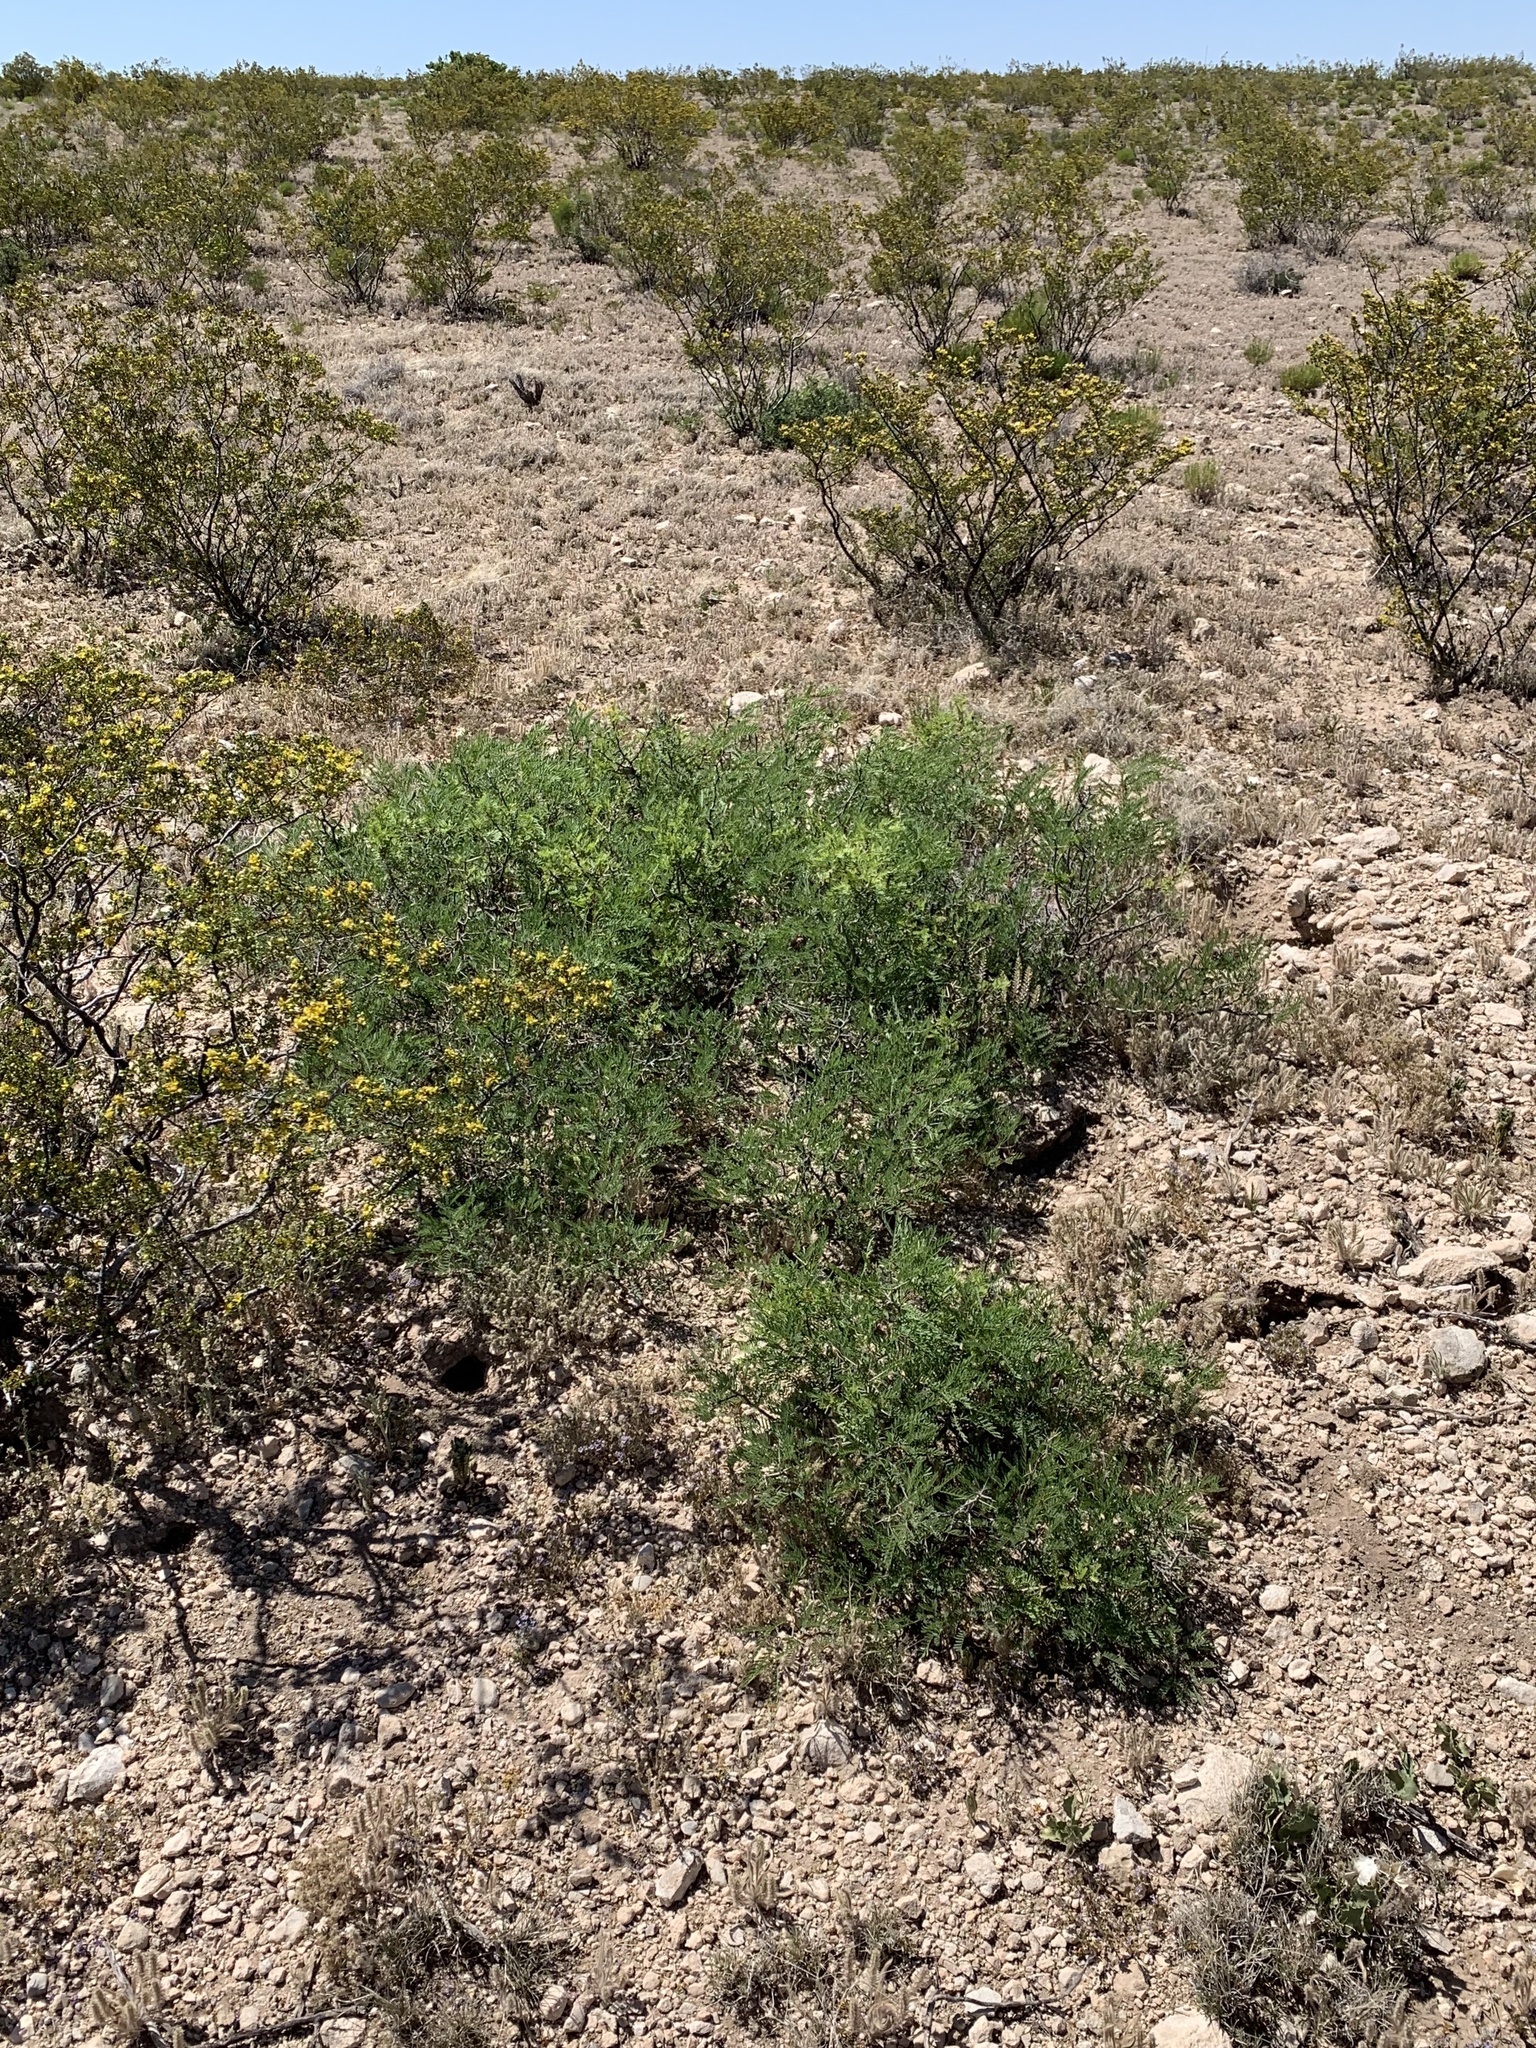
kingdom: Plantae
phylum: Tracheophyta
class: Magnoliopsida
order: Fabales
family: Fabaceae
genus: Prosopis
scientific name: Prosopis glandulosa
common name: Honey mesquite
